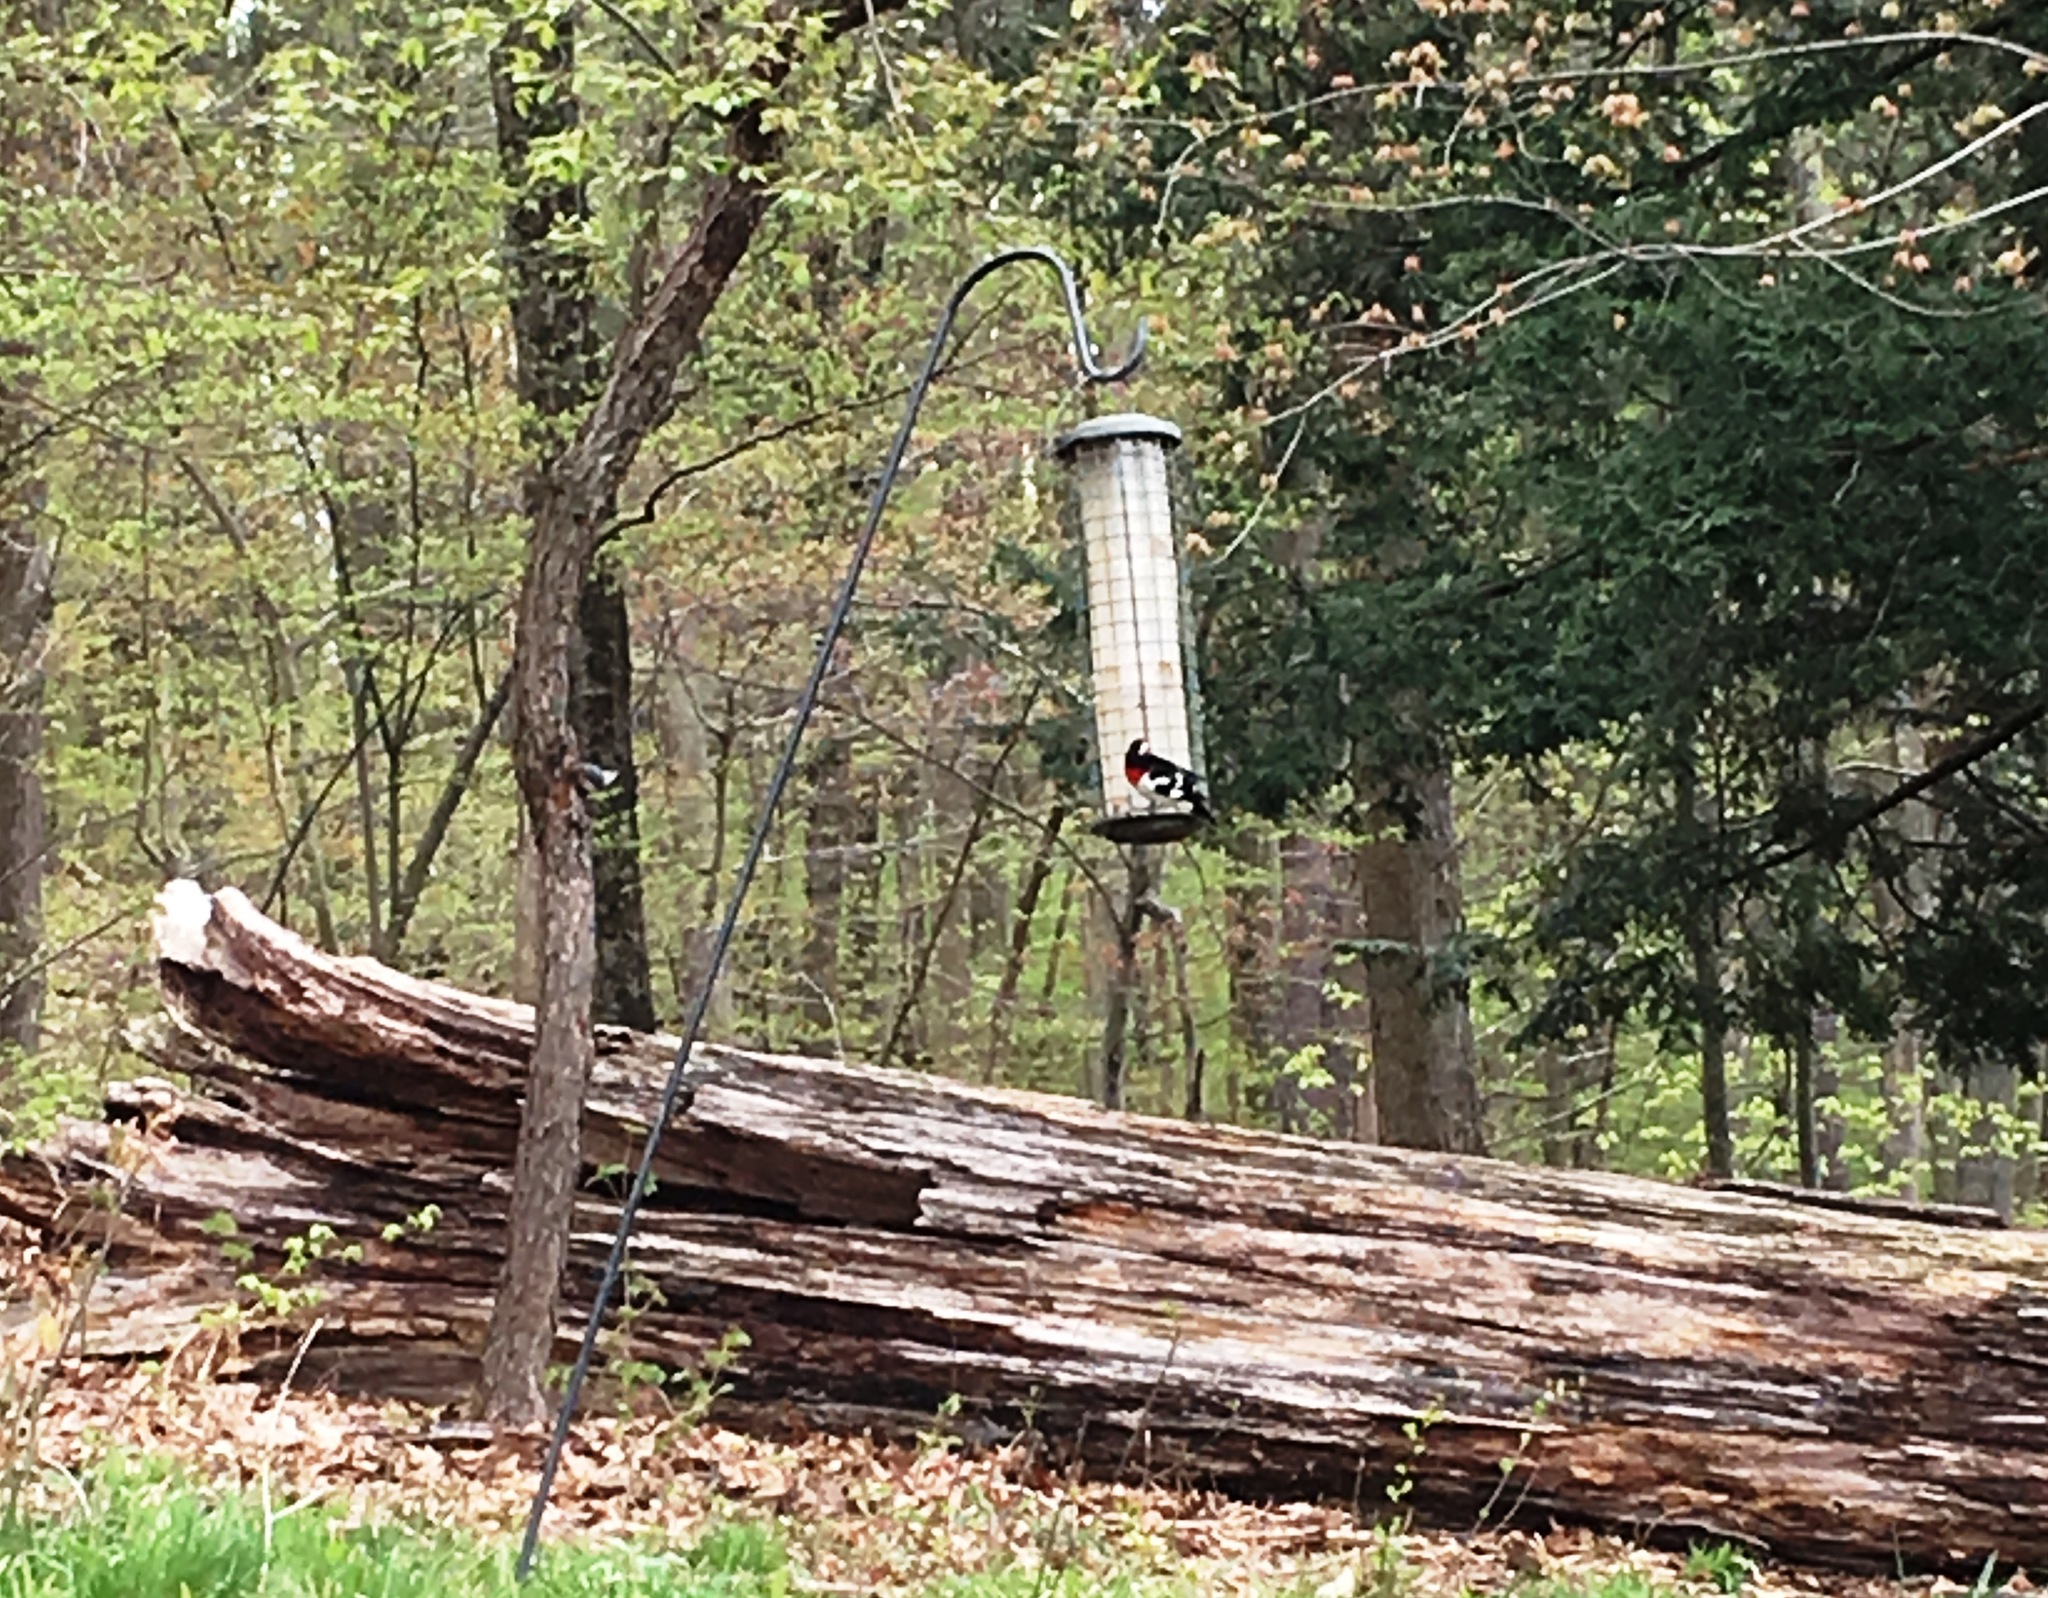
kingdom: Animalia
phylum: Chordata
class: Aves
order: Passeriformes
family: Cardinalidae
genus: Pheucticus
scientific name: Pheucticus ludovicianus
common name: Rose-breasted grosbeak
